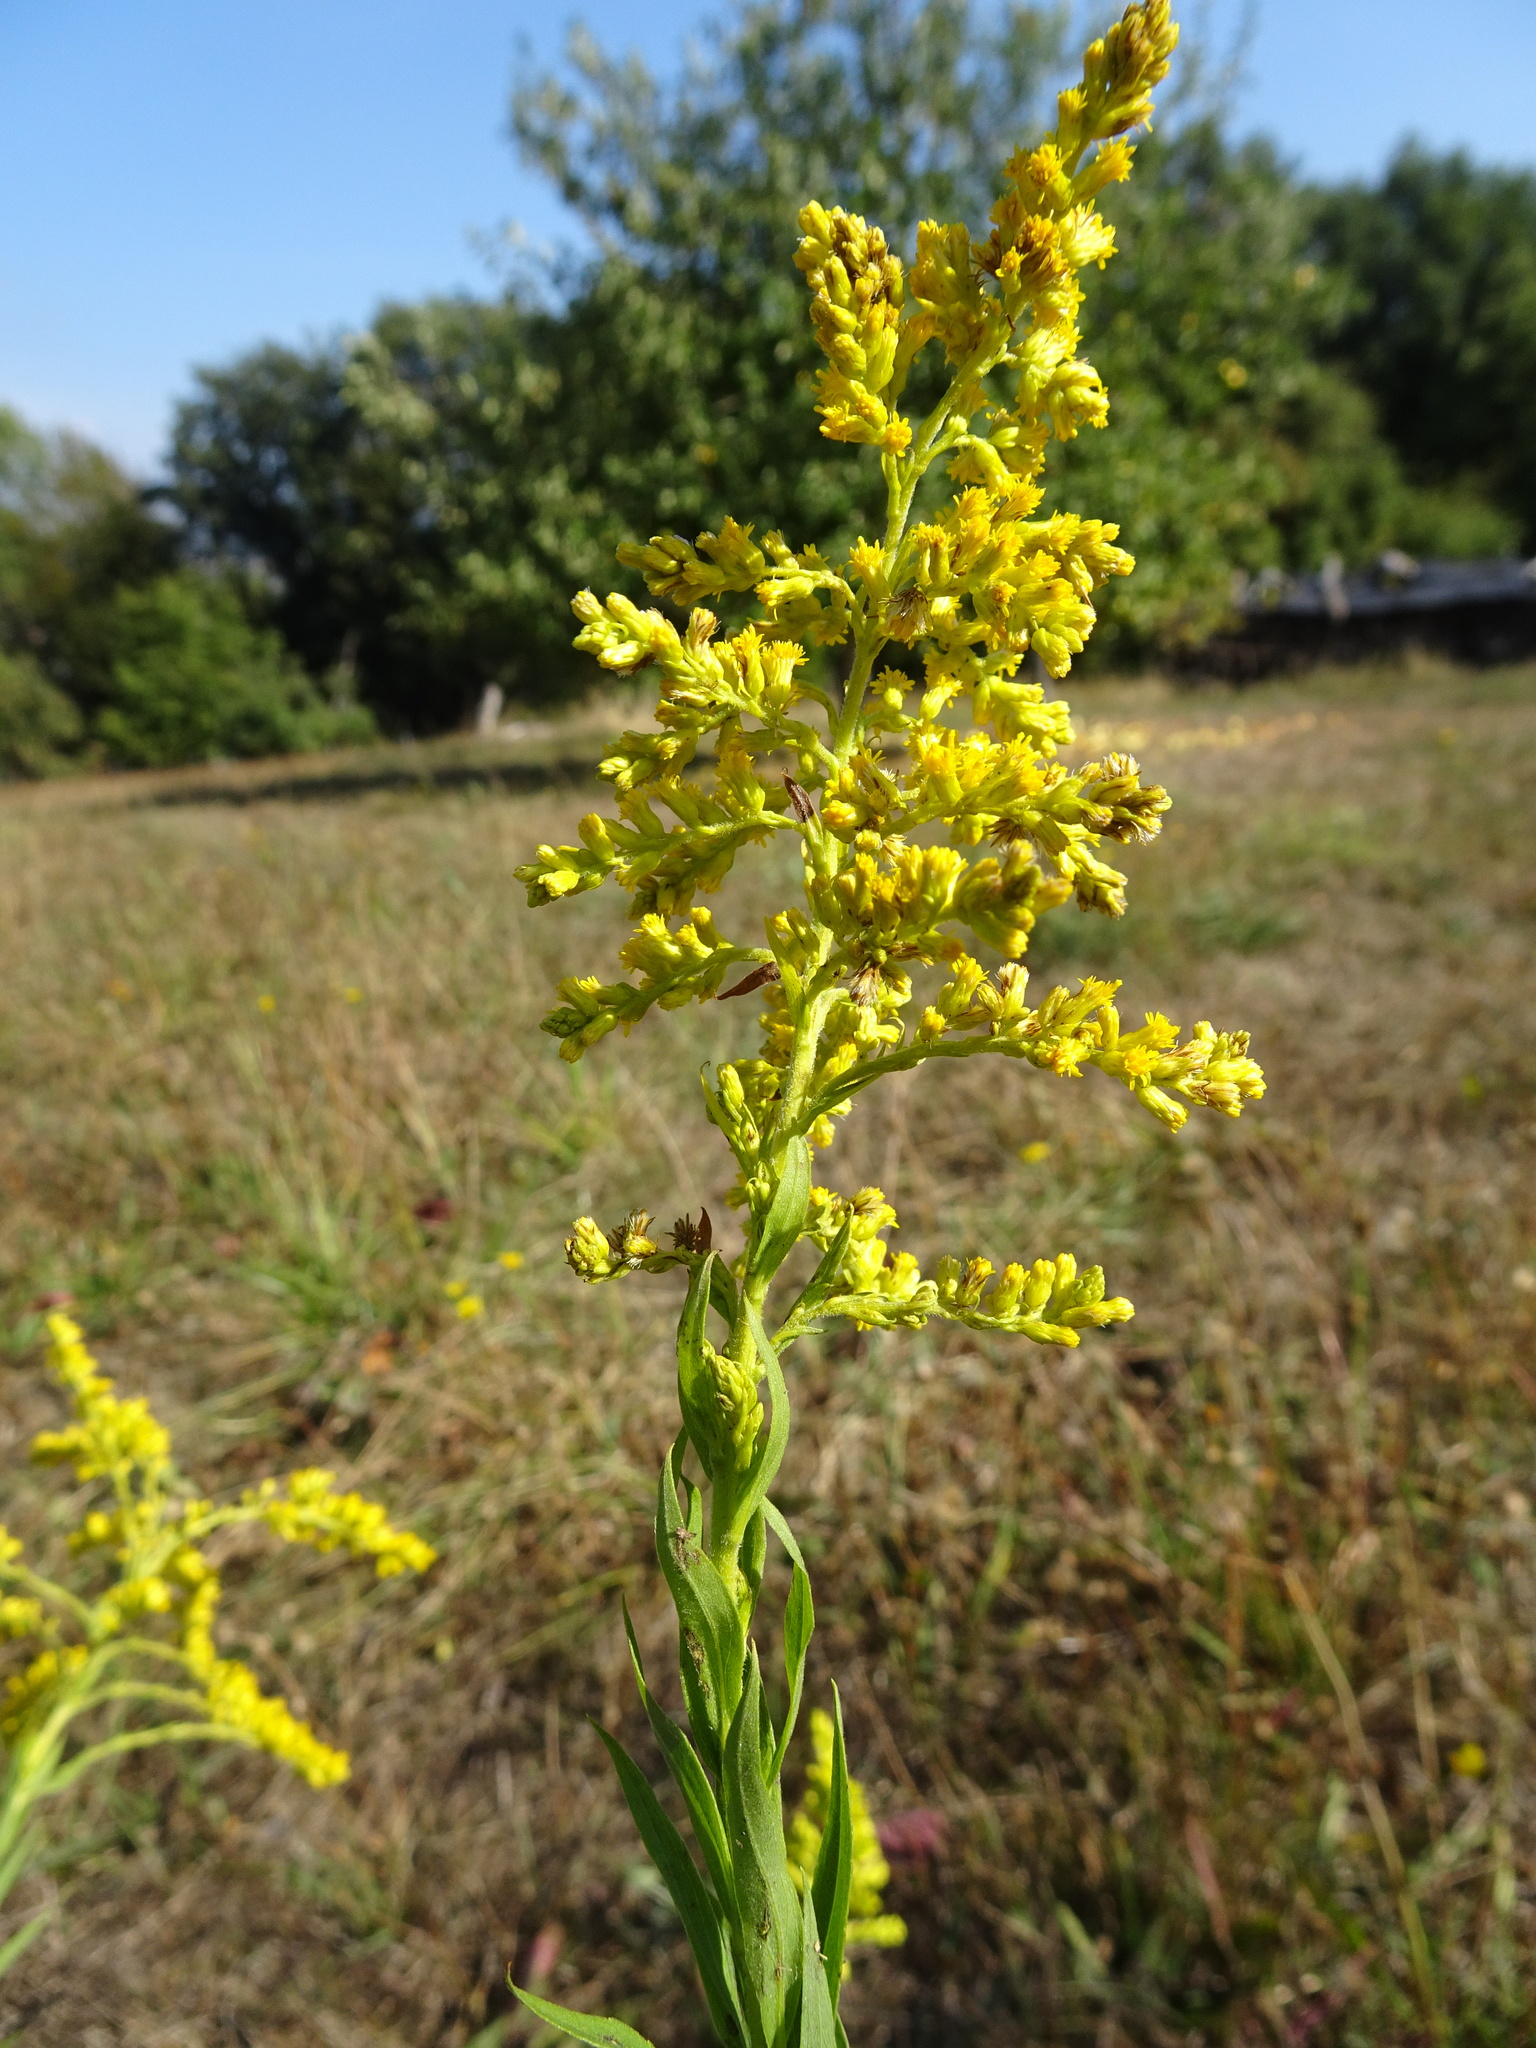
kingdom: Plantae
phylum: Tracheophyta
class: Magnoliopsida
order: Asterales
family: Asteraceae
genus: Solidago
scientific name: Solidago canadensis
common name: Canada goldenrod
